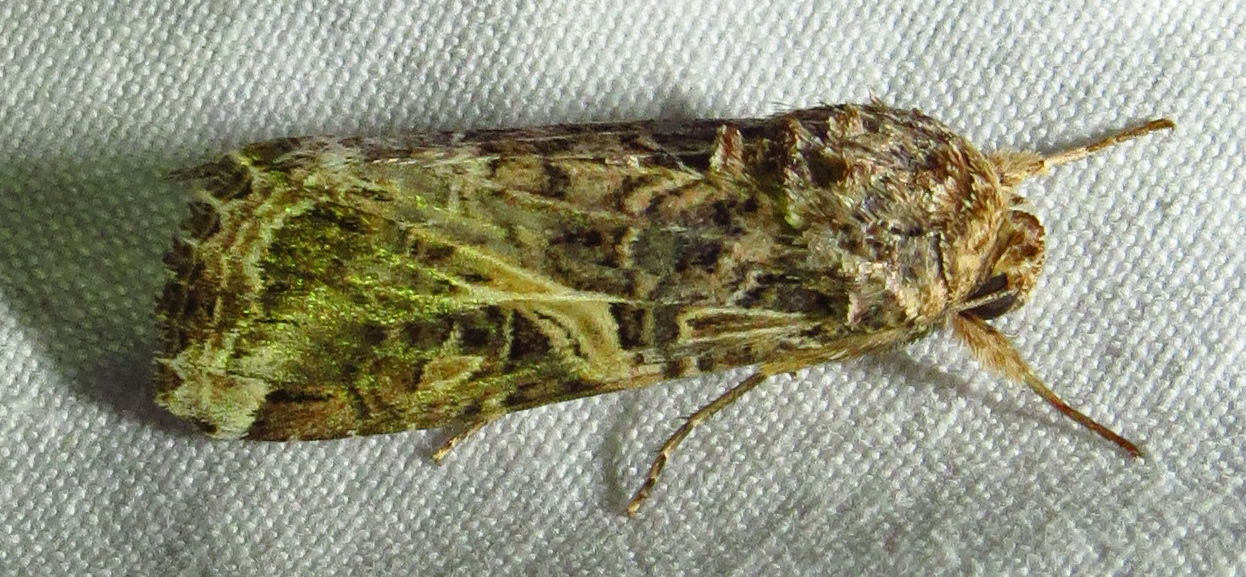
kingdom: Animalia
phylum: Arthropoda
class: Insecta
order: Lepidoptera
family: Noctuidae
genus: Spodoptera
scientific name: Spodoptera ornithogalli
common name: Yellow-striped armyworm
